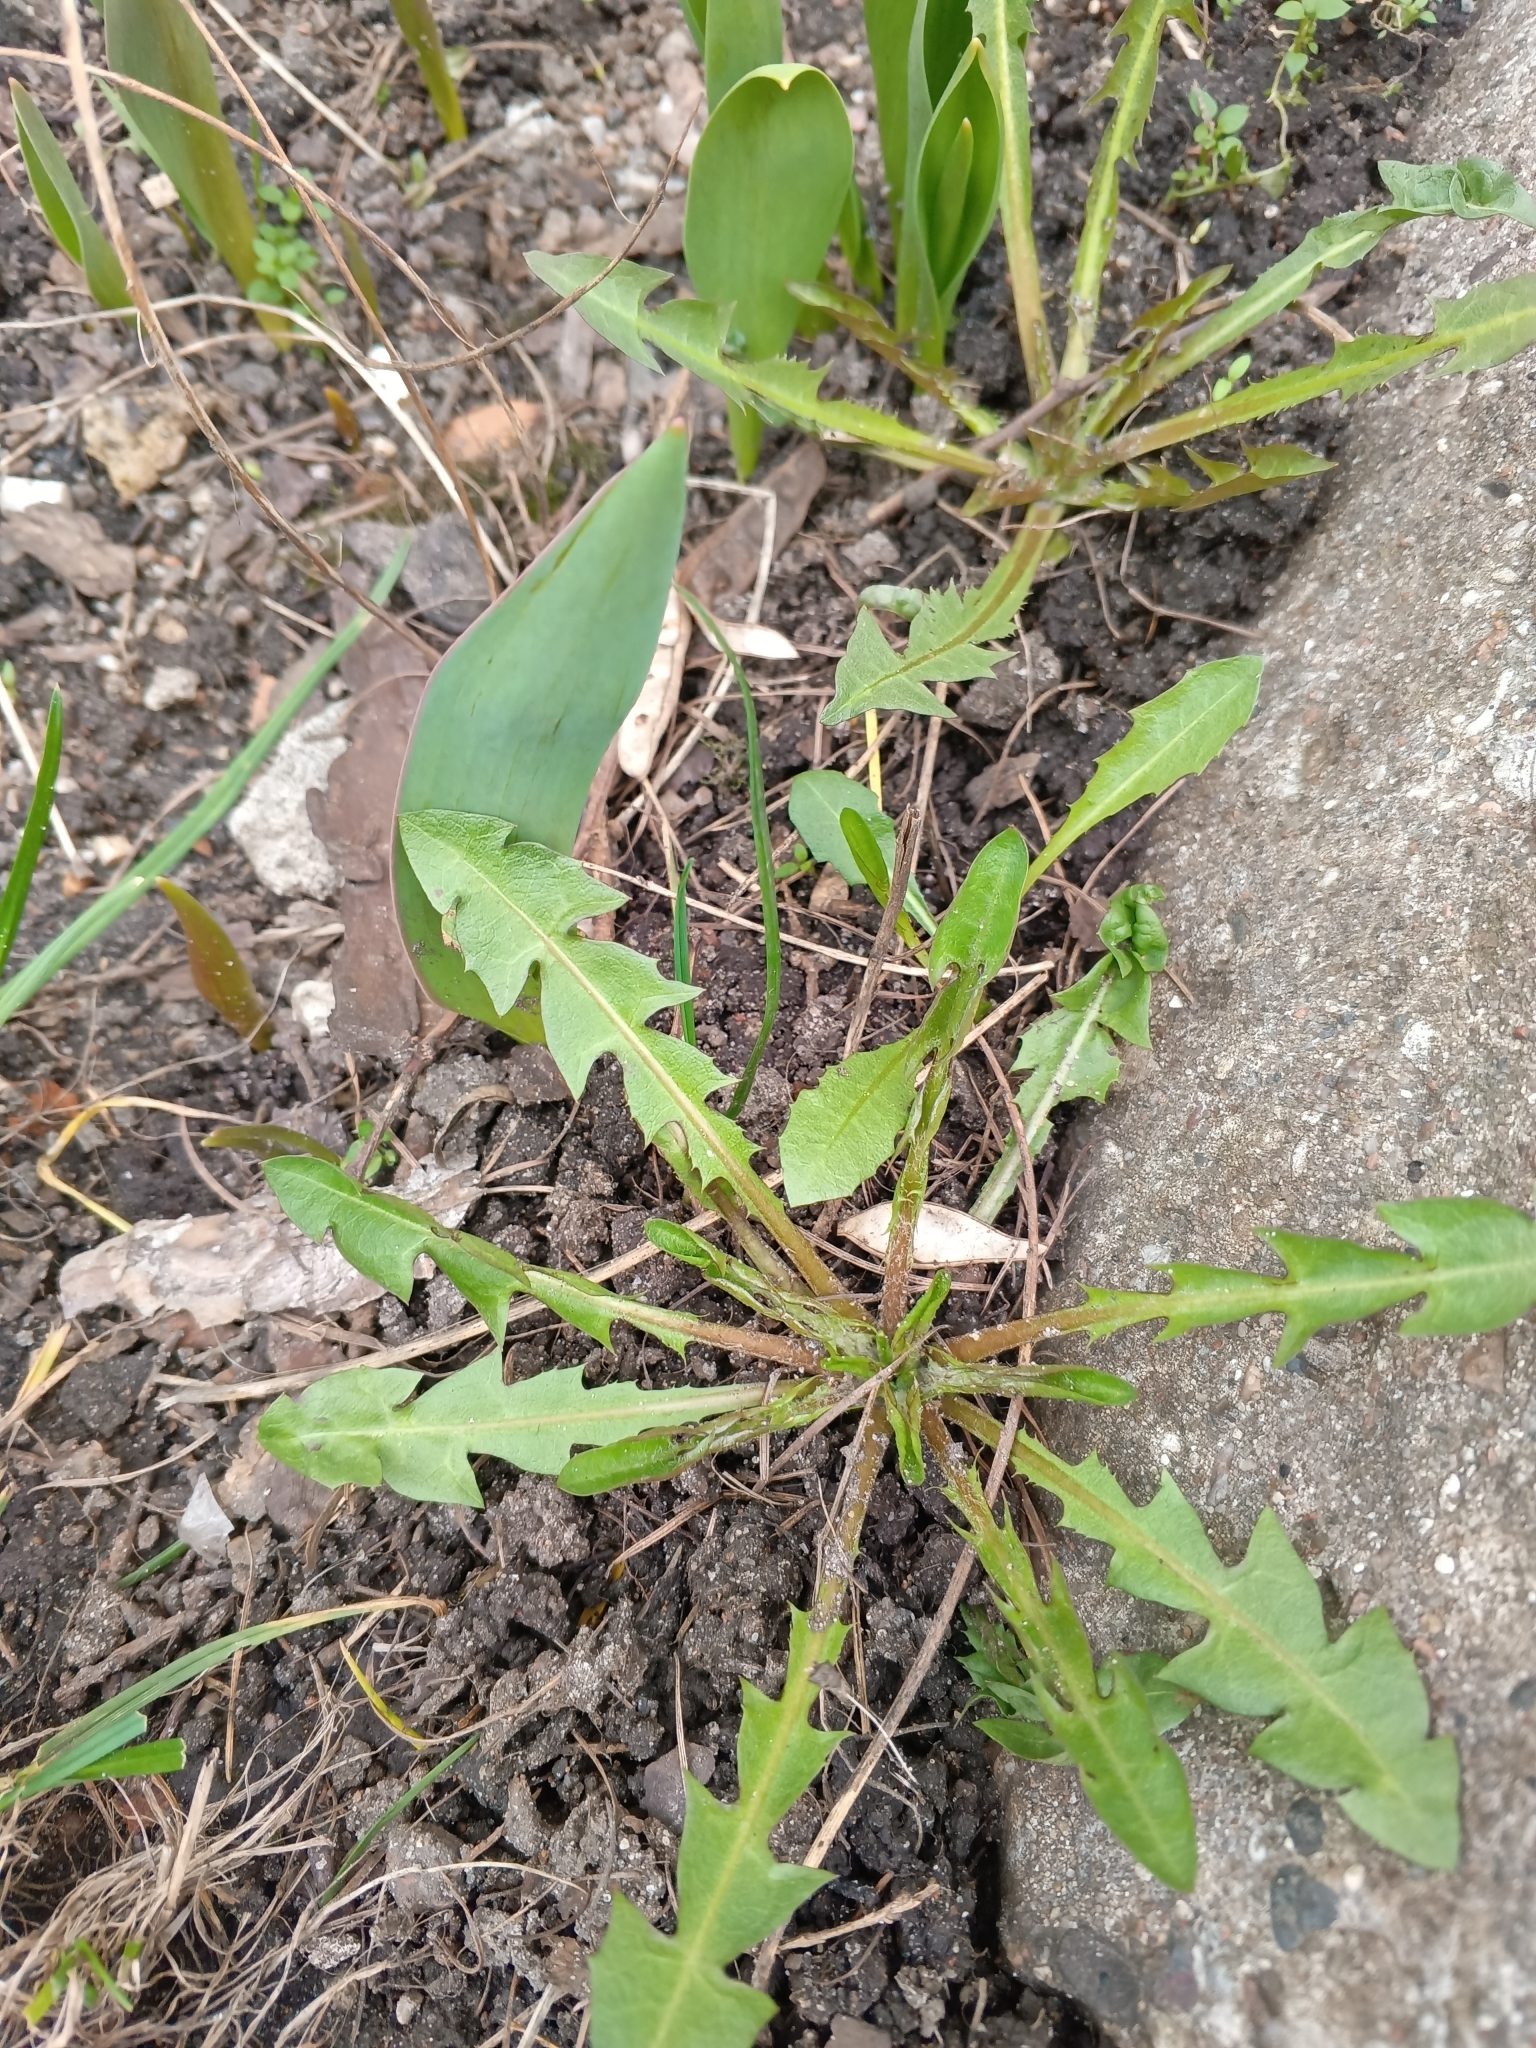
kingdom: Plantae
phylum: Tracheophyta
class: Magnoliopsida
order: Asterales
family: Asteraceae
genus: Taraxacum
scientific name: Taraxacum officinale
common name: Common dandelion
